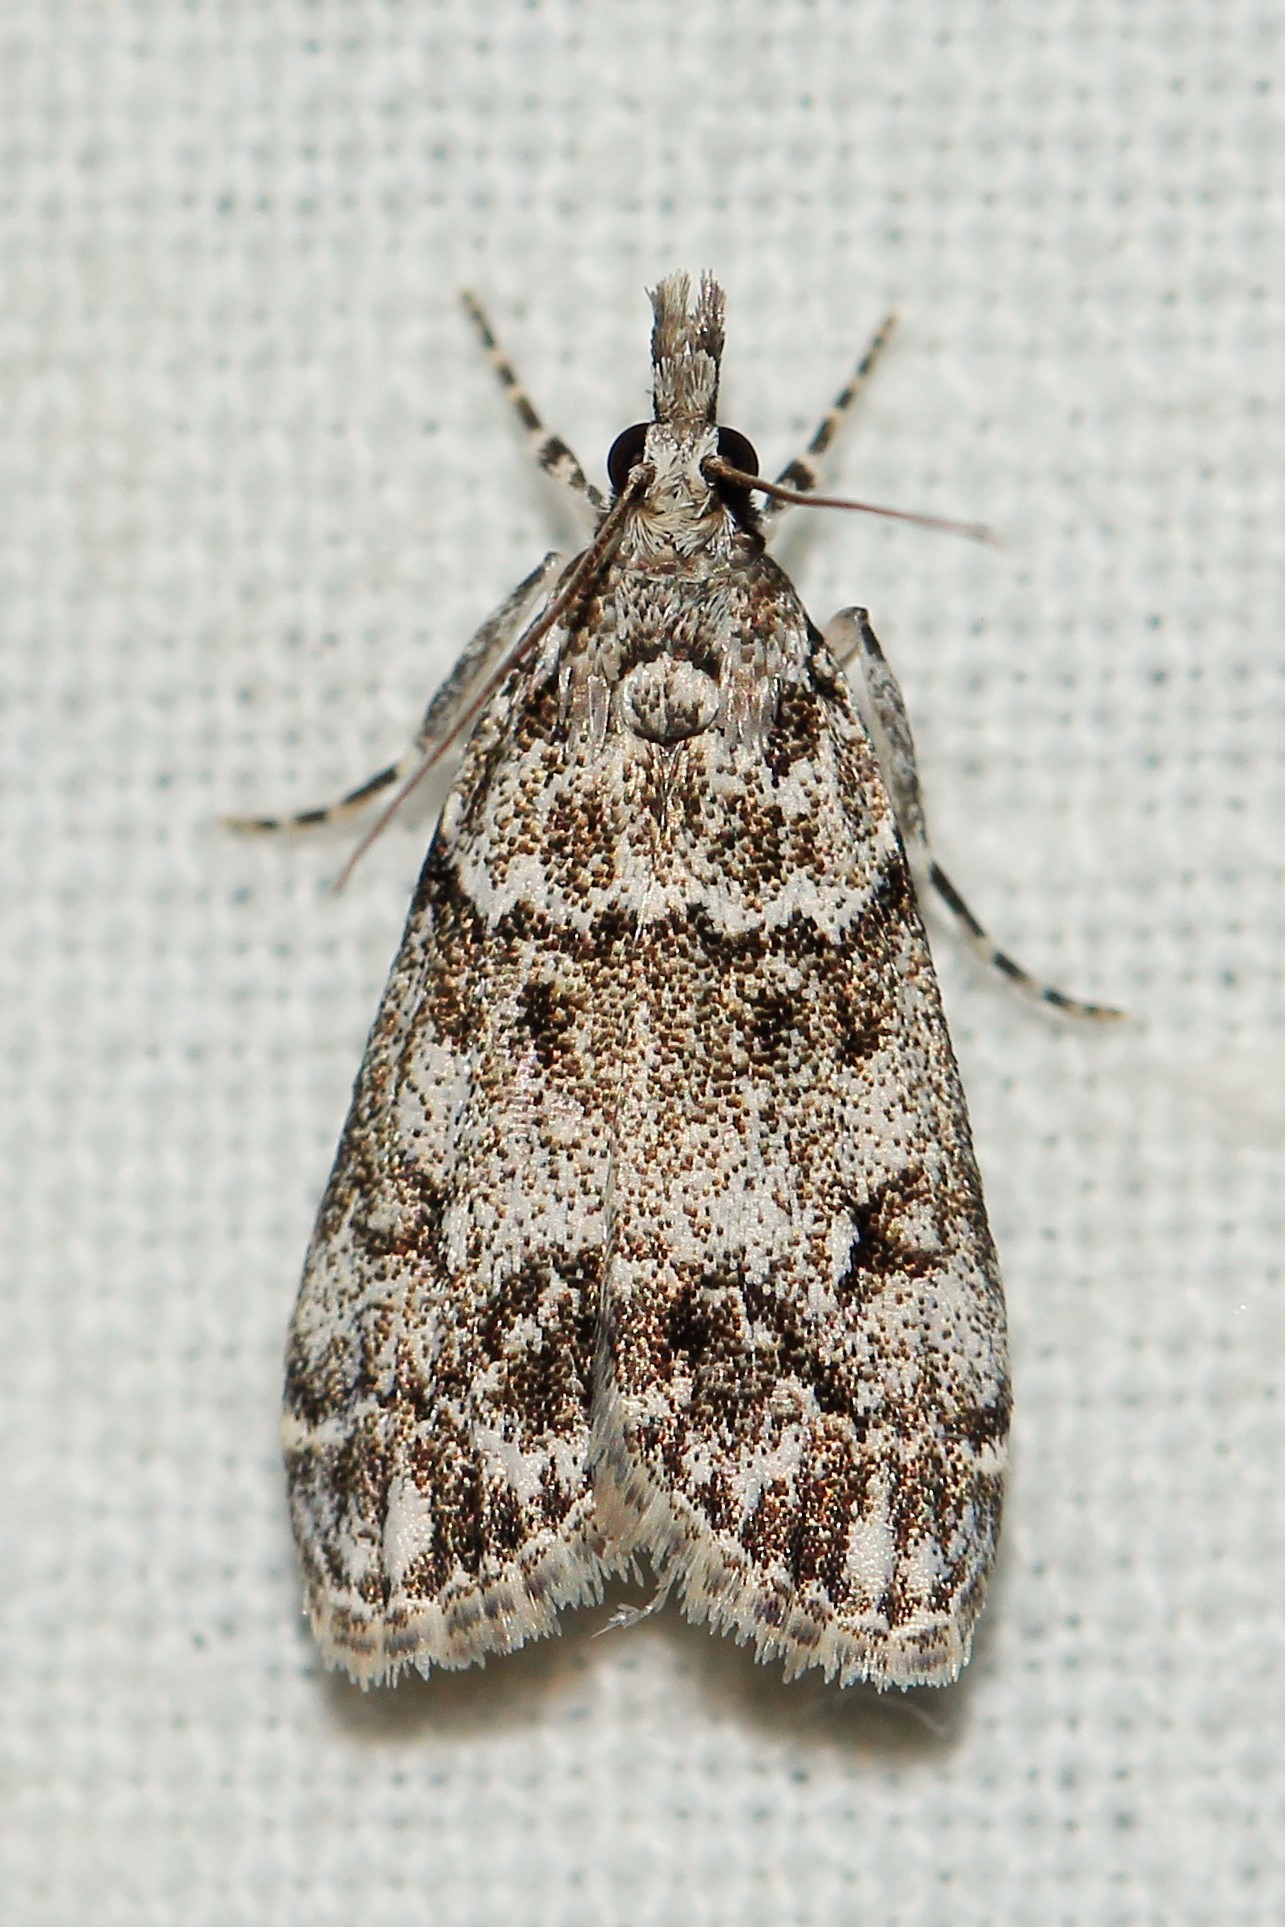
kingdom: Animalia
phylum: Arthropoda
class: Insecta
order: Lepidoptera
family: Crambidae
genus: Eudonia
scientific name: Eudonia lacustrata
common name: Little grey
